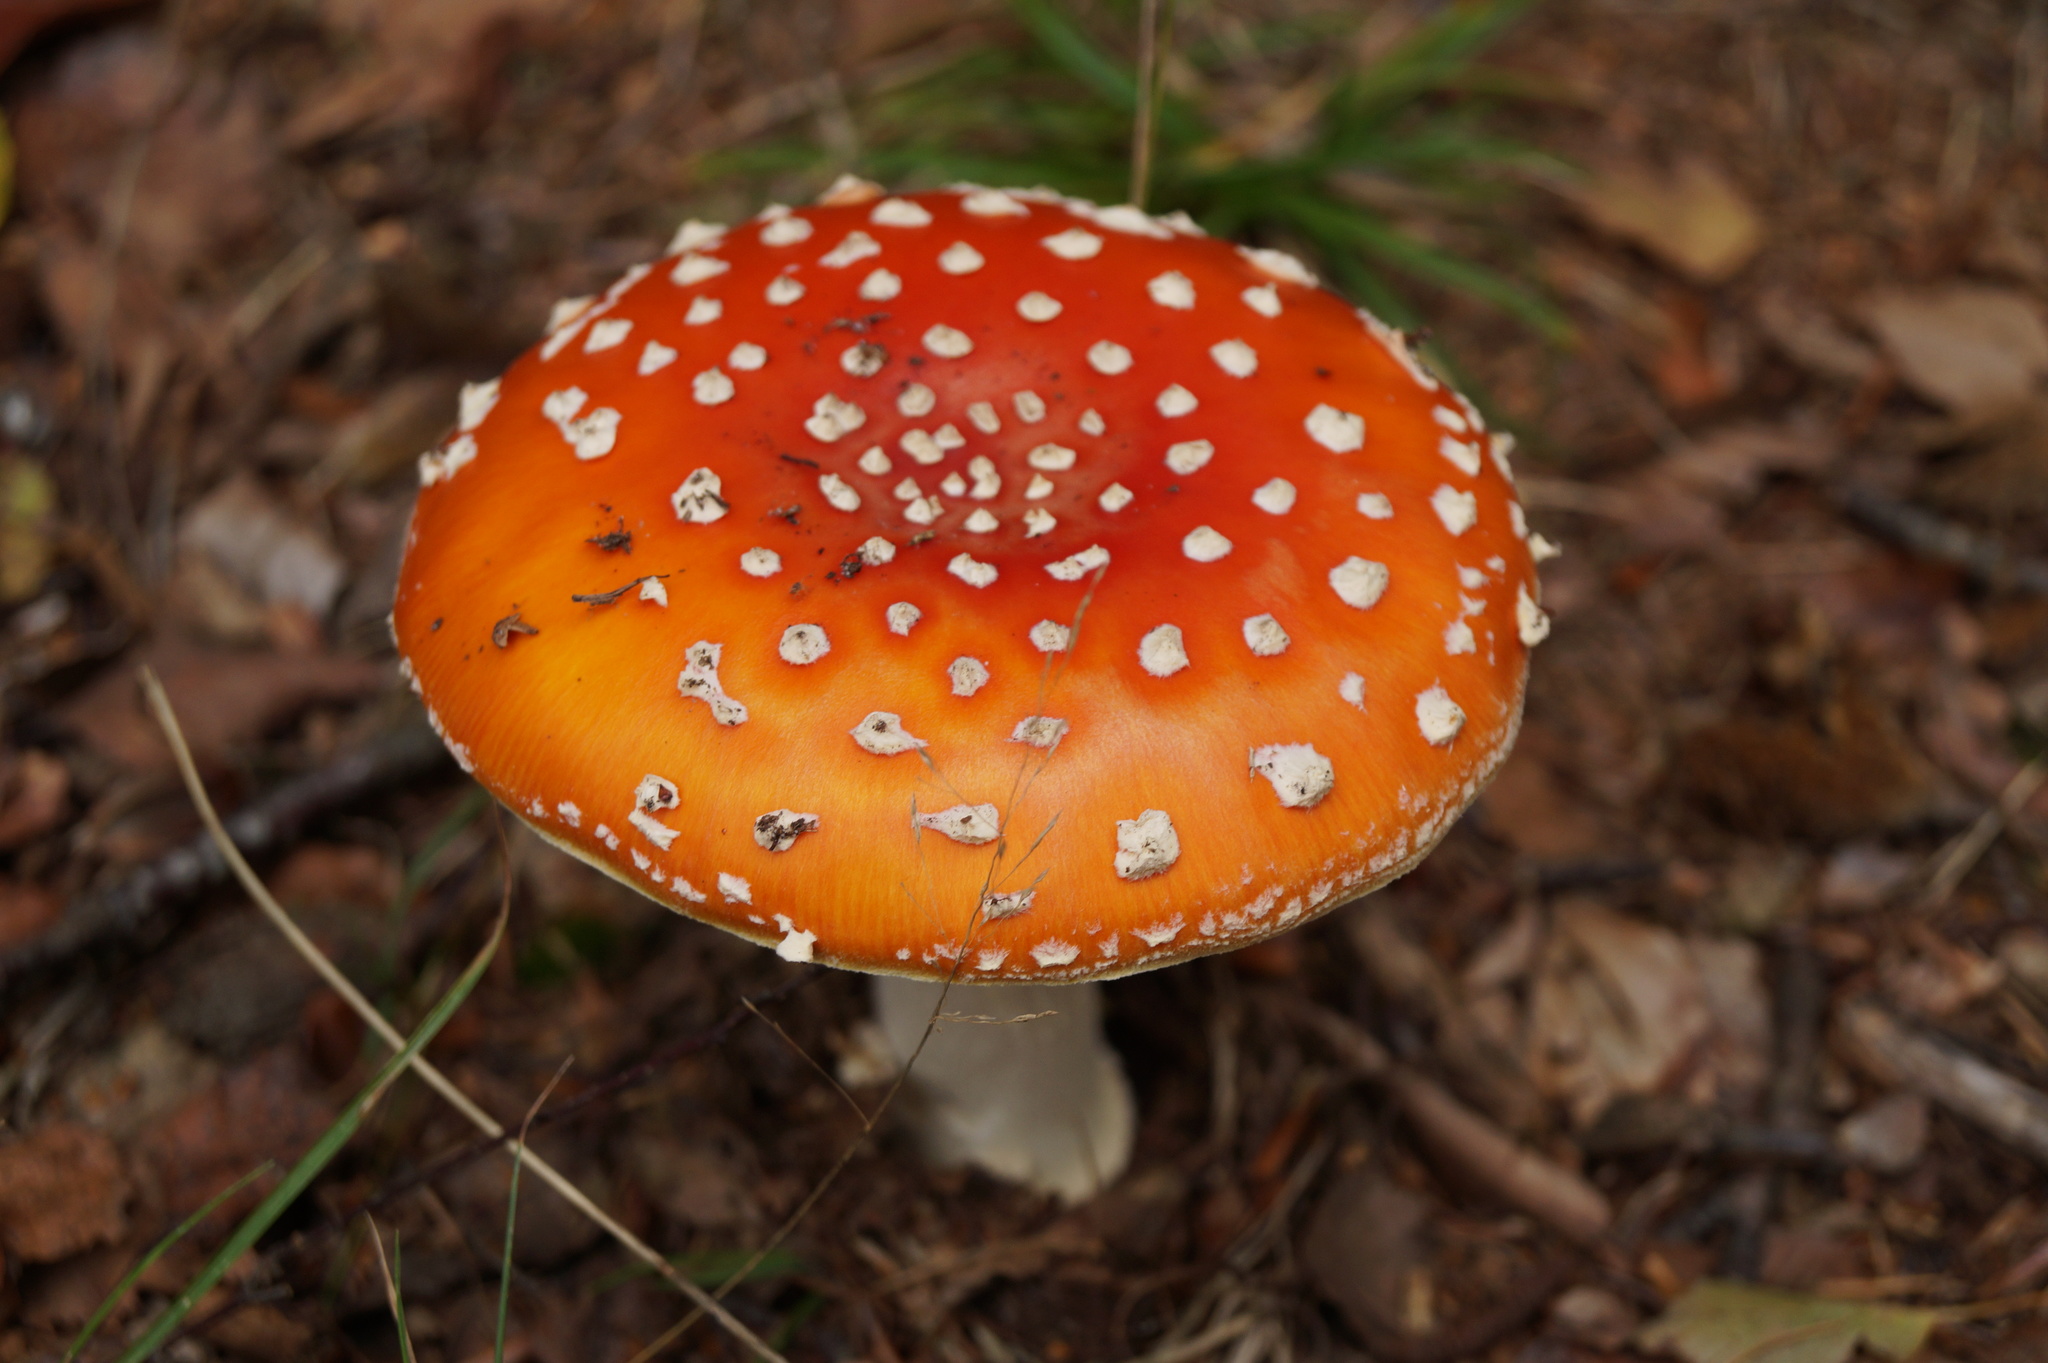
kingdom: Fungi
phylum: Basidiomycota
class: Agaricomycetes
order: Agaricales
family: Amanitaceae
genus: Amanita
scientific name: Amanita muscaria
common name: Fly agaric
